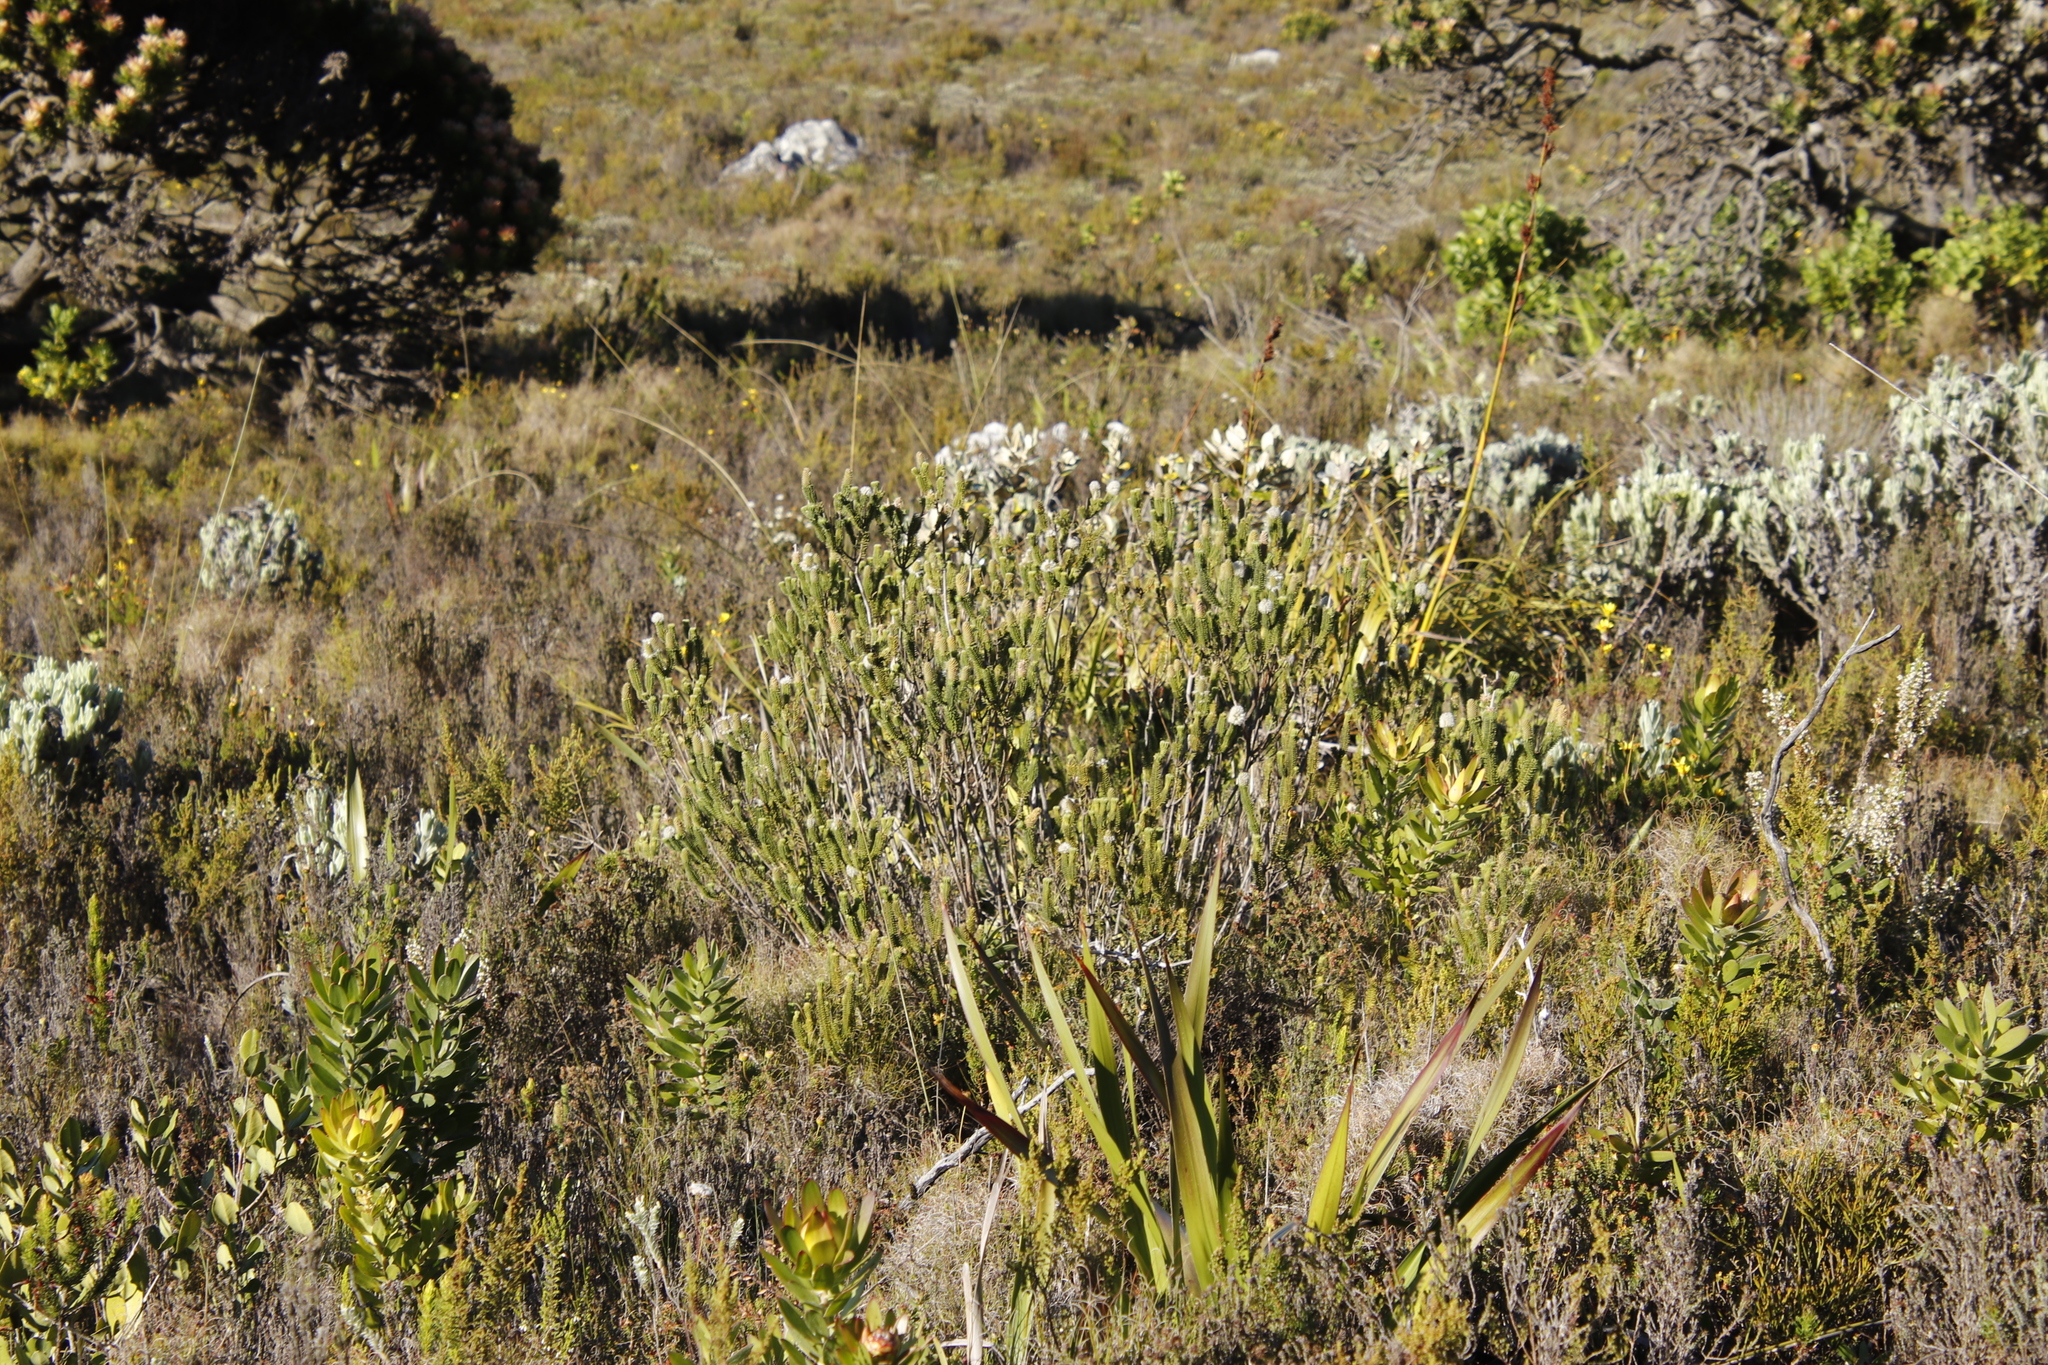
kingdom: Plantae
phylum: Tracheophyta
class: Magnoliopsida
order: Lamiales
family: Stilbaceae
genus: Stilbe
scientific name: Stilbe vestita
